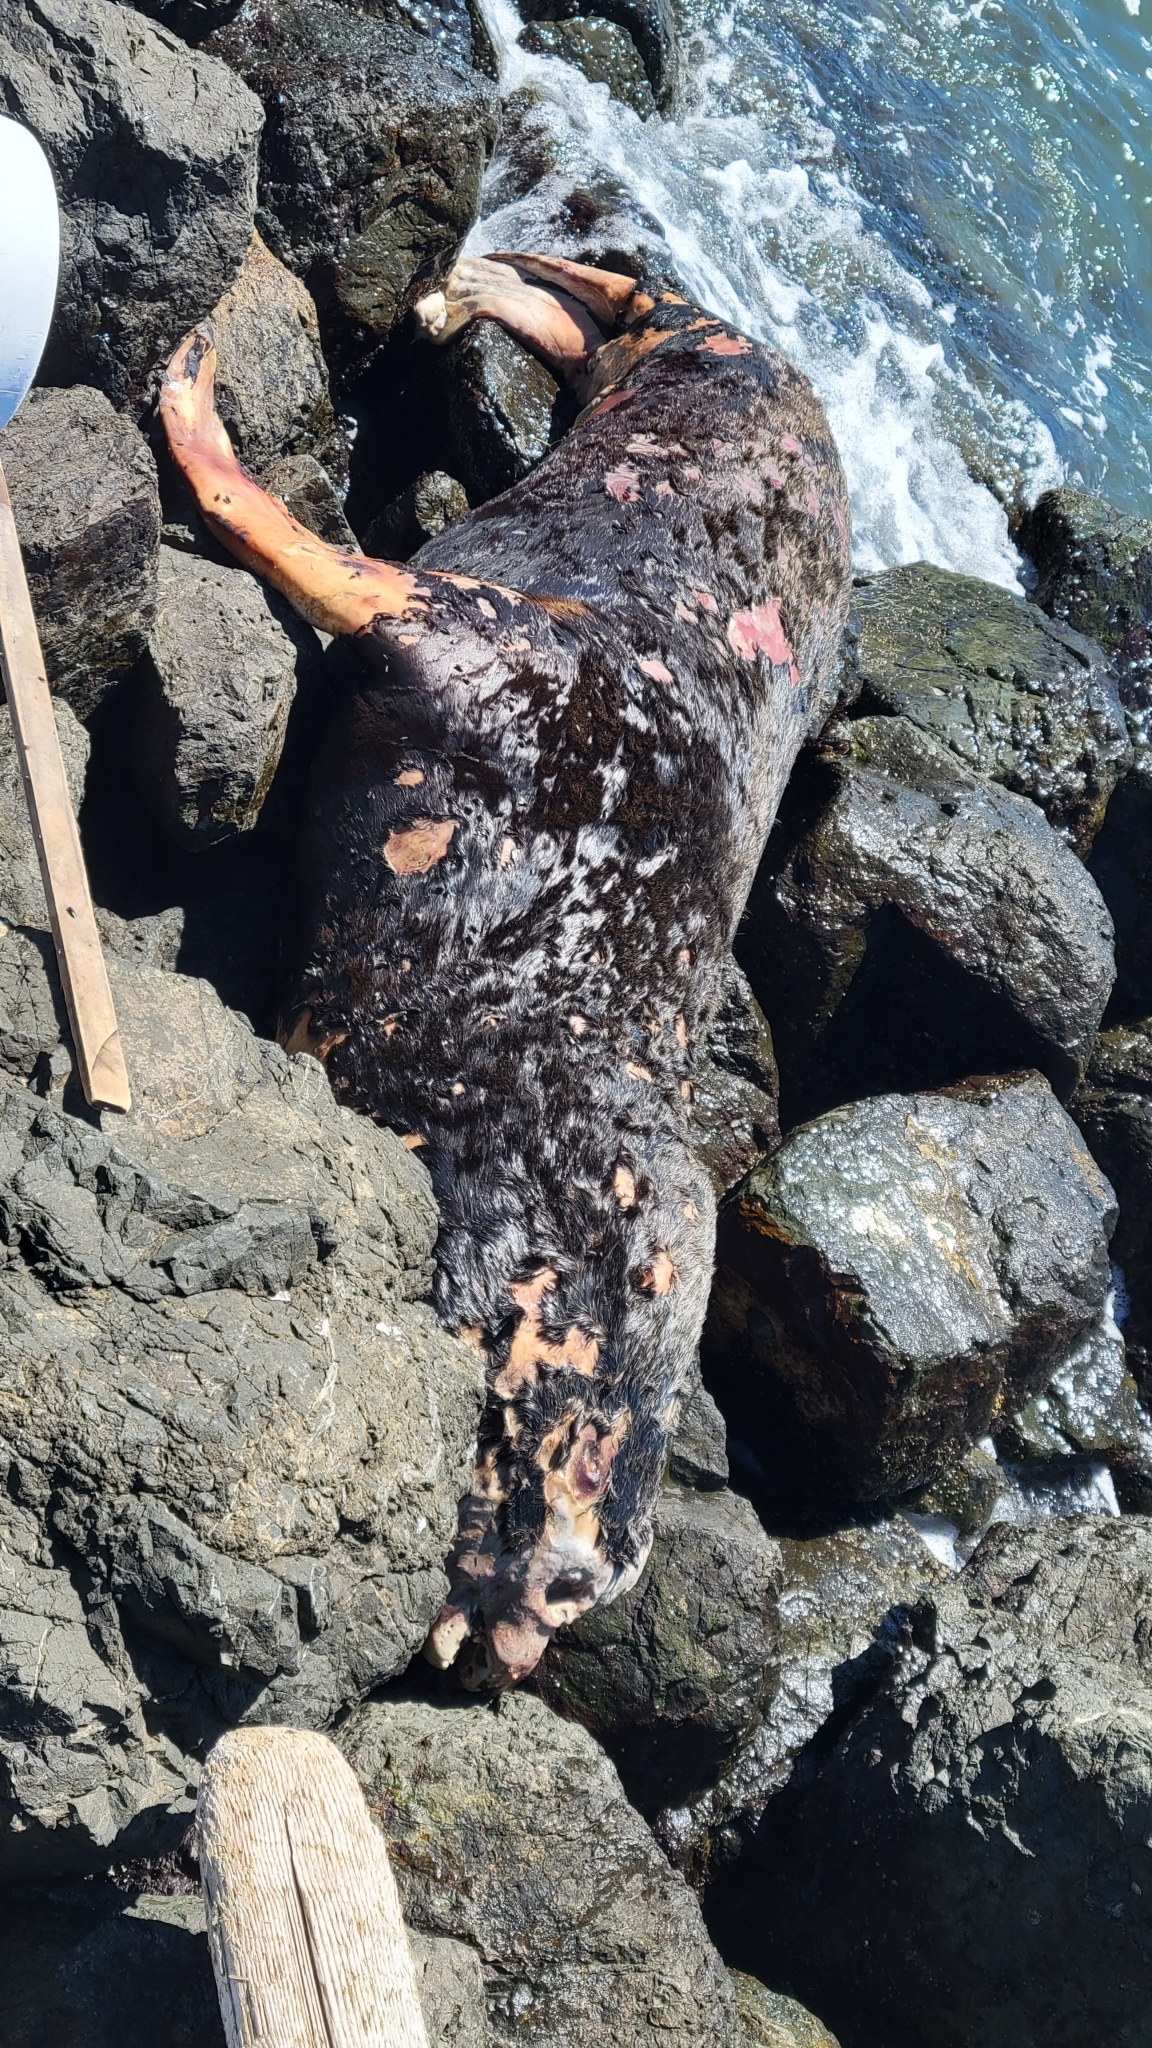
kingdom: Animalia
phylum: Chordata
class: Mammalia
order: Carnivora
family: Otariidae
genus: Zalophus
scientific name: Zalophus californianus
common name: California sea lion
